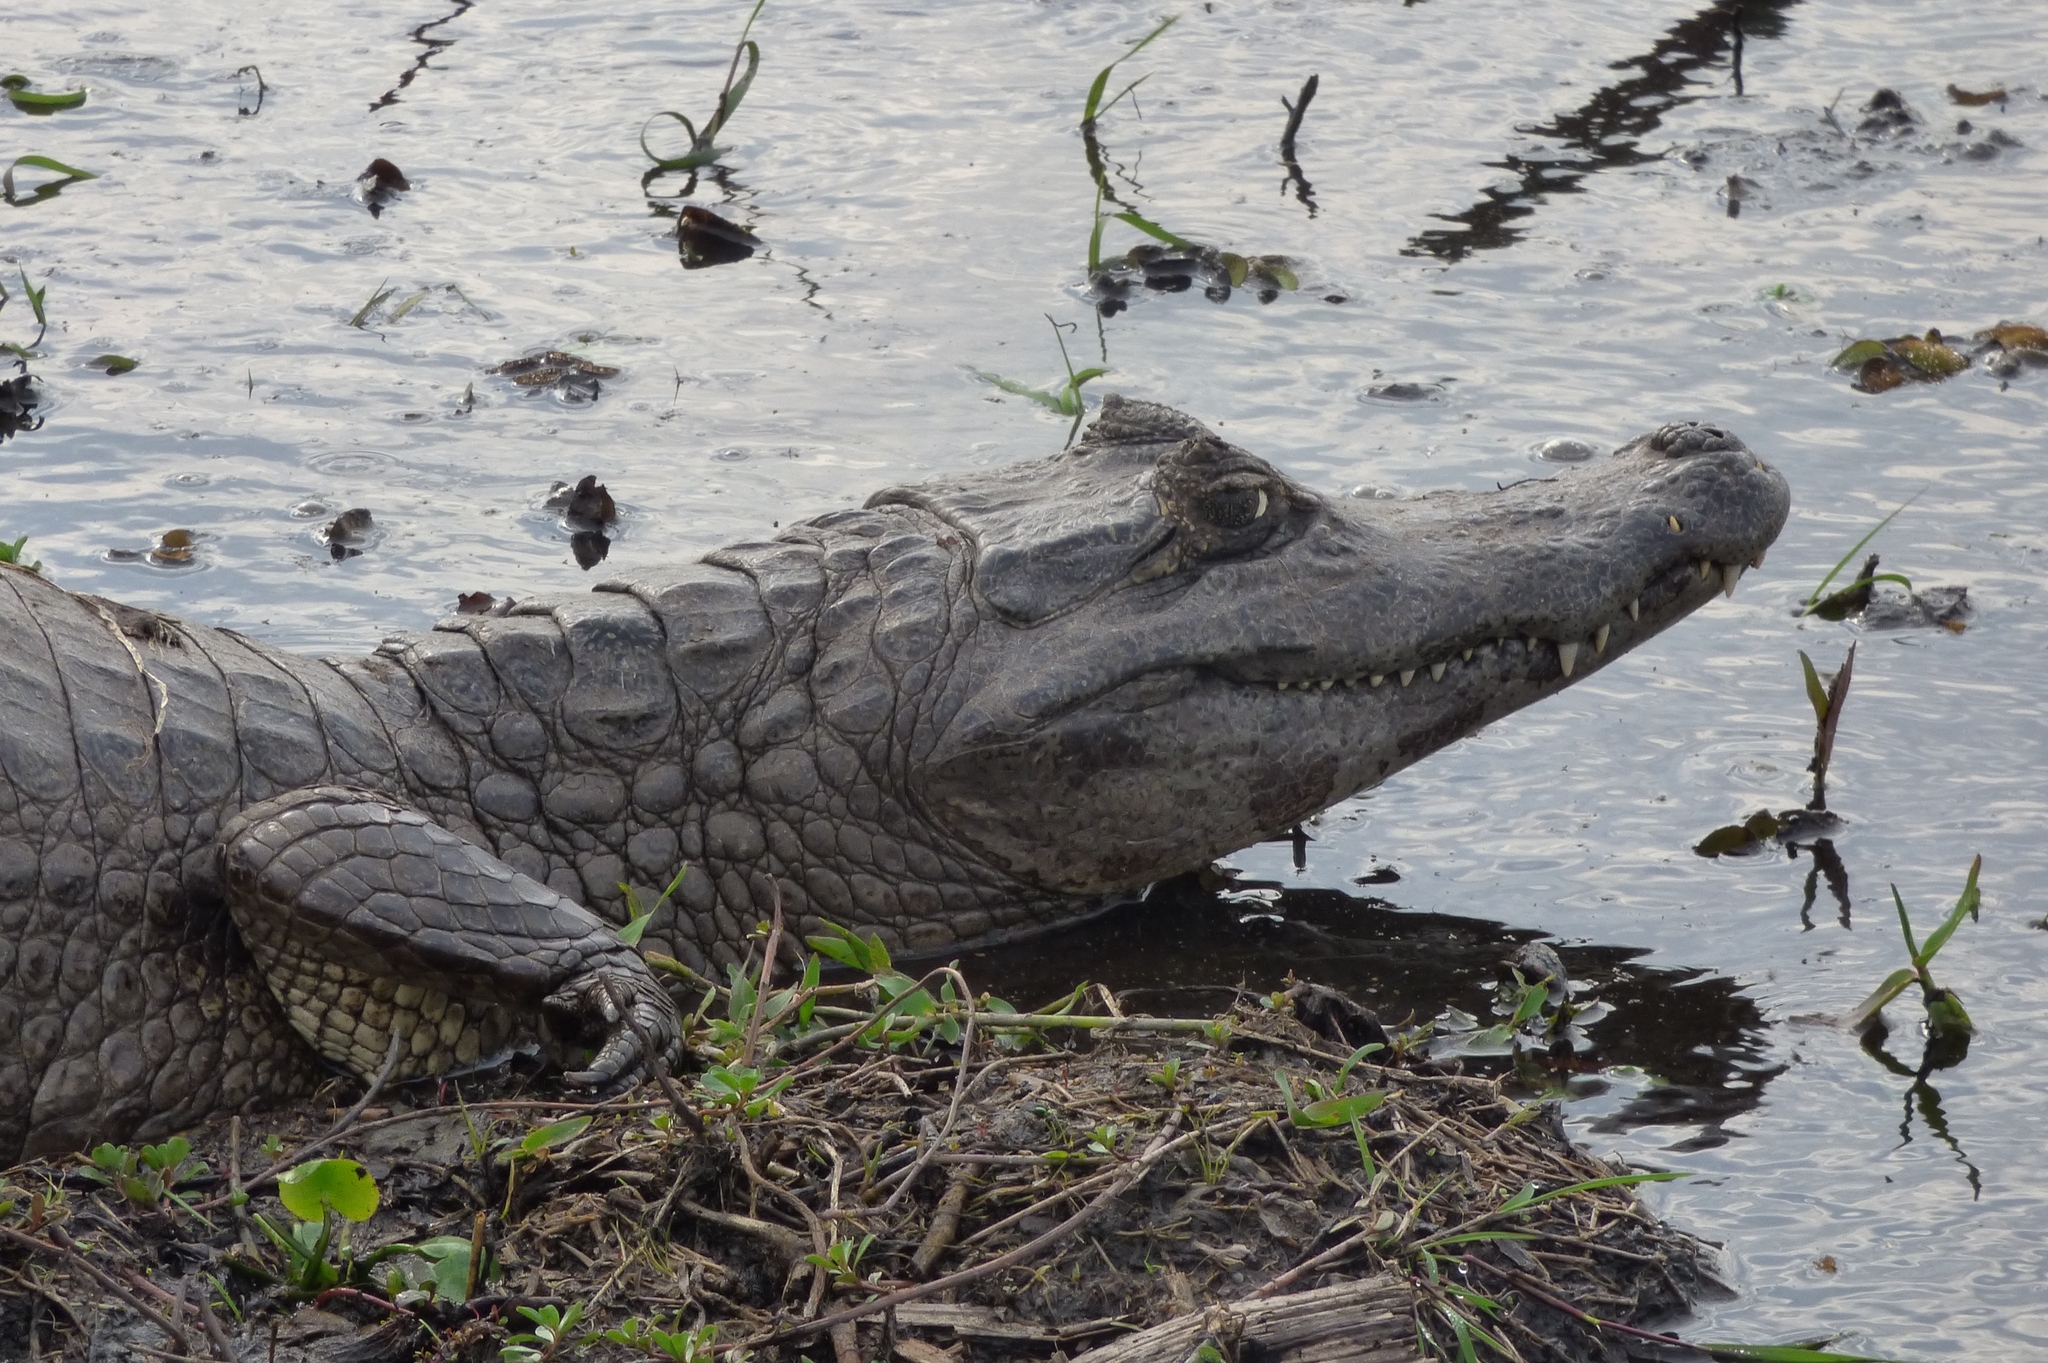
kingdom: Animalia
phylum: Chordata
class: Crocodylia
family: Alligatoridae
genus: Caiman
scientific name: Caiman yacare
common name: Yacare caiman
